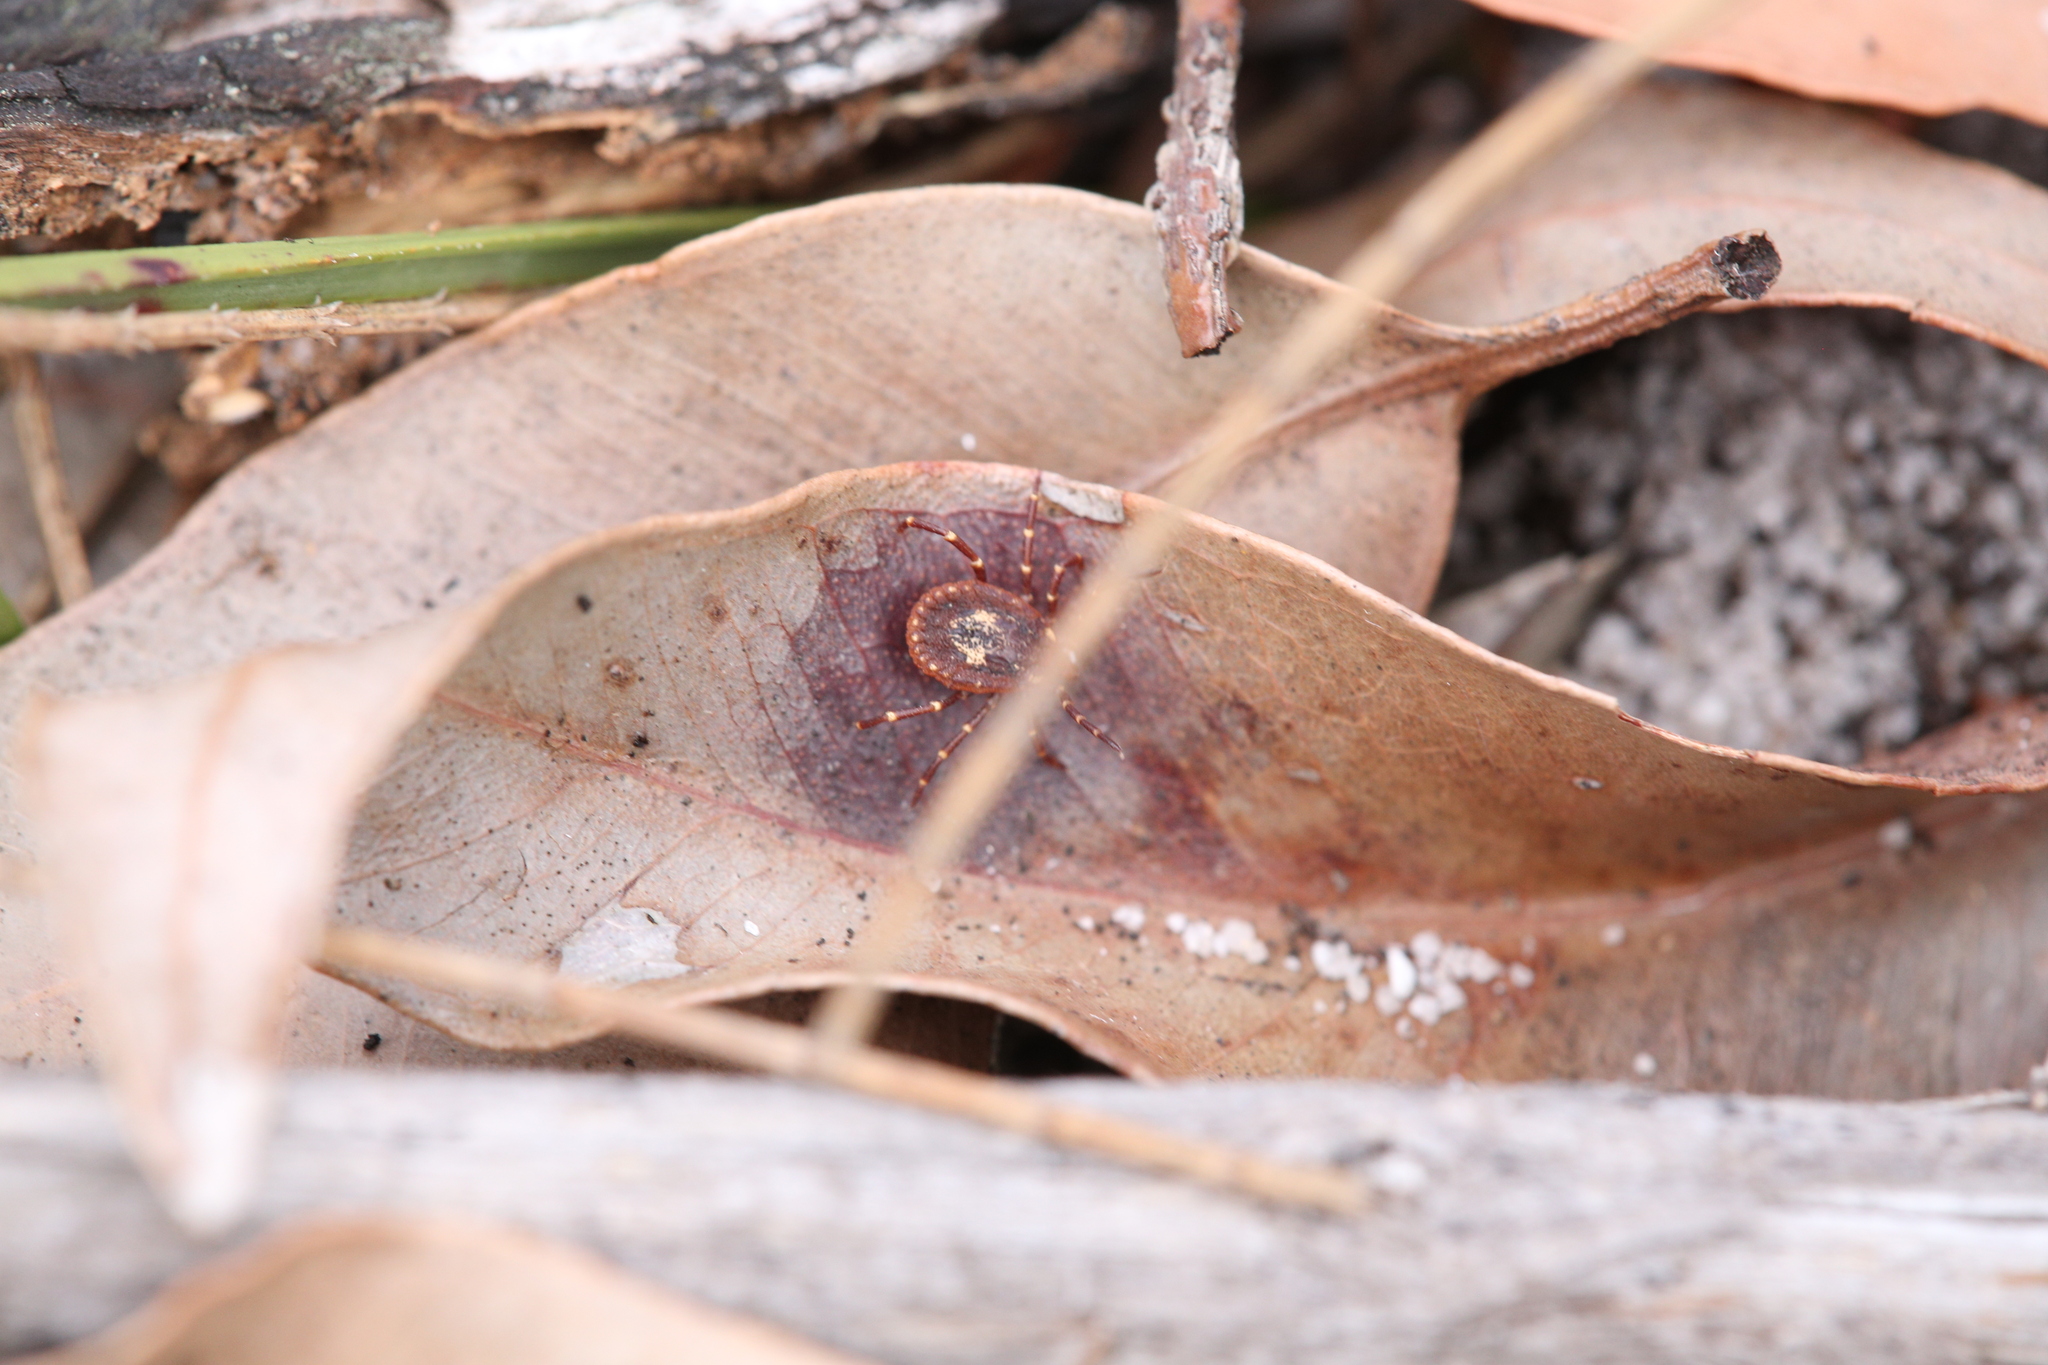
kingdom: Animalia
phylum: Arthropoda
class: Arachnida
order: Ixodida
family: Ixodidae
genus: Amblyomma
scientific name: Amblyomma triguttatum
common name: Kangaroo hard tick
